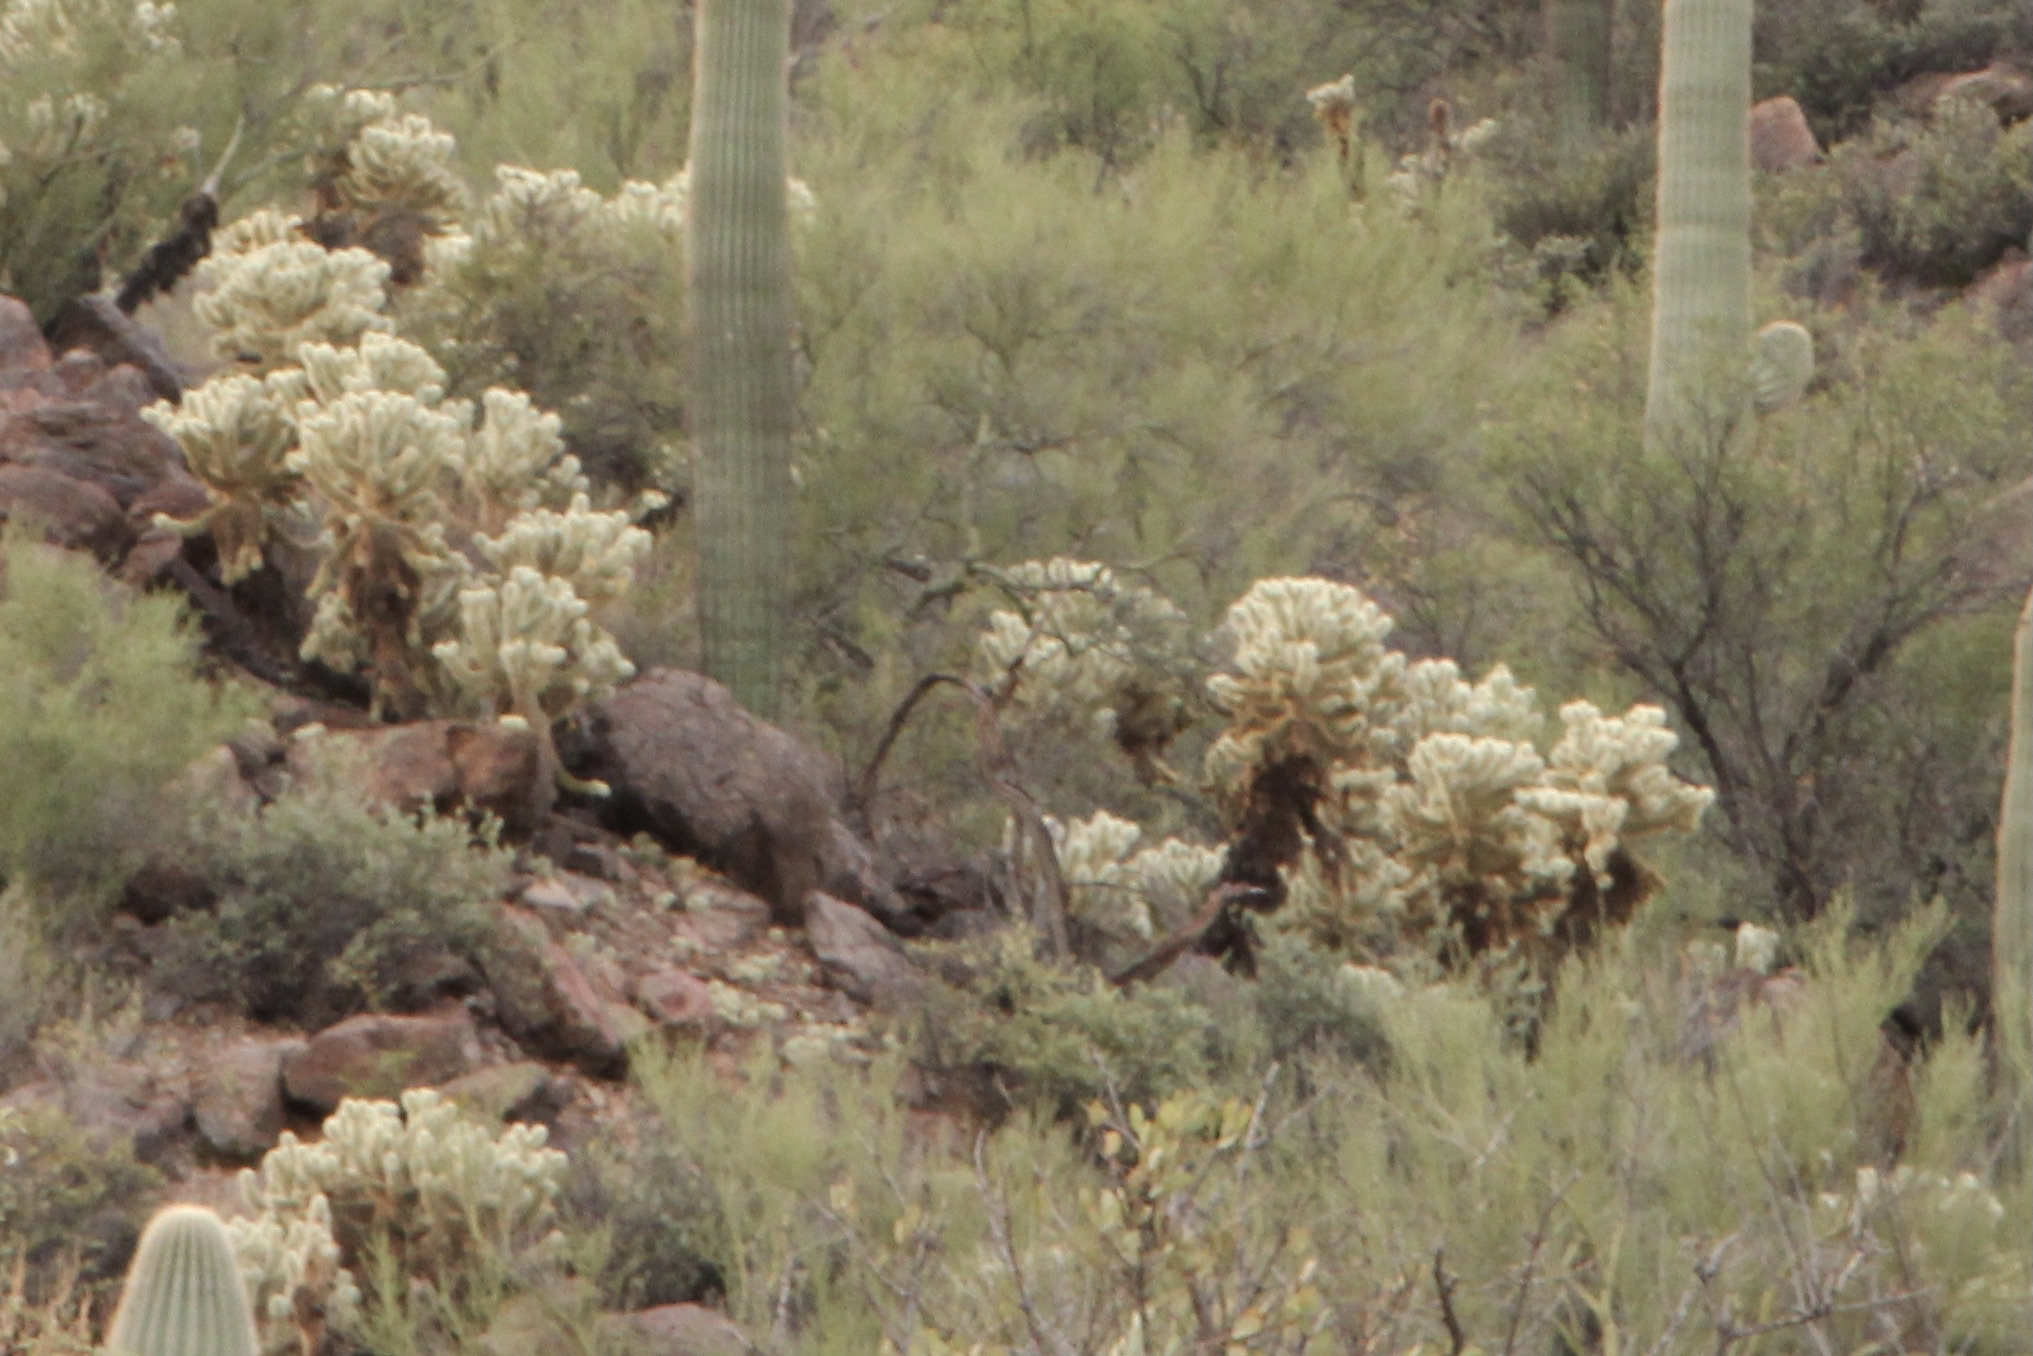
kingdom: Plantae
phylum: Tracheophyta
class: Magnoliopsida
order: Caryophyllales
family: Cactaceae
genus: Cylindropuntia
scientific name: Cylindropuntia fosbergii
